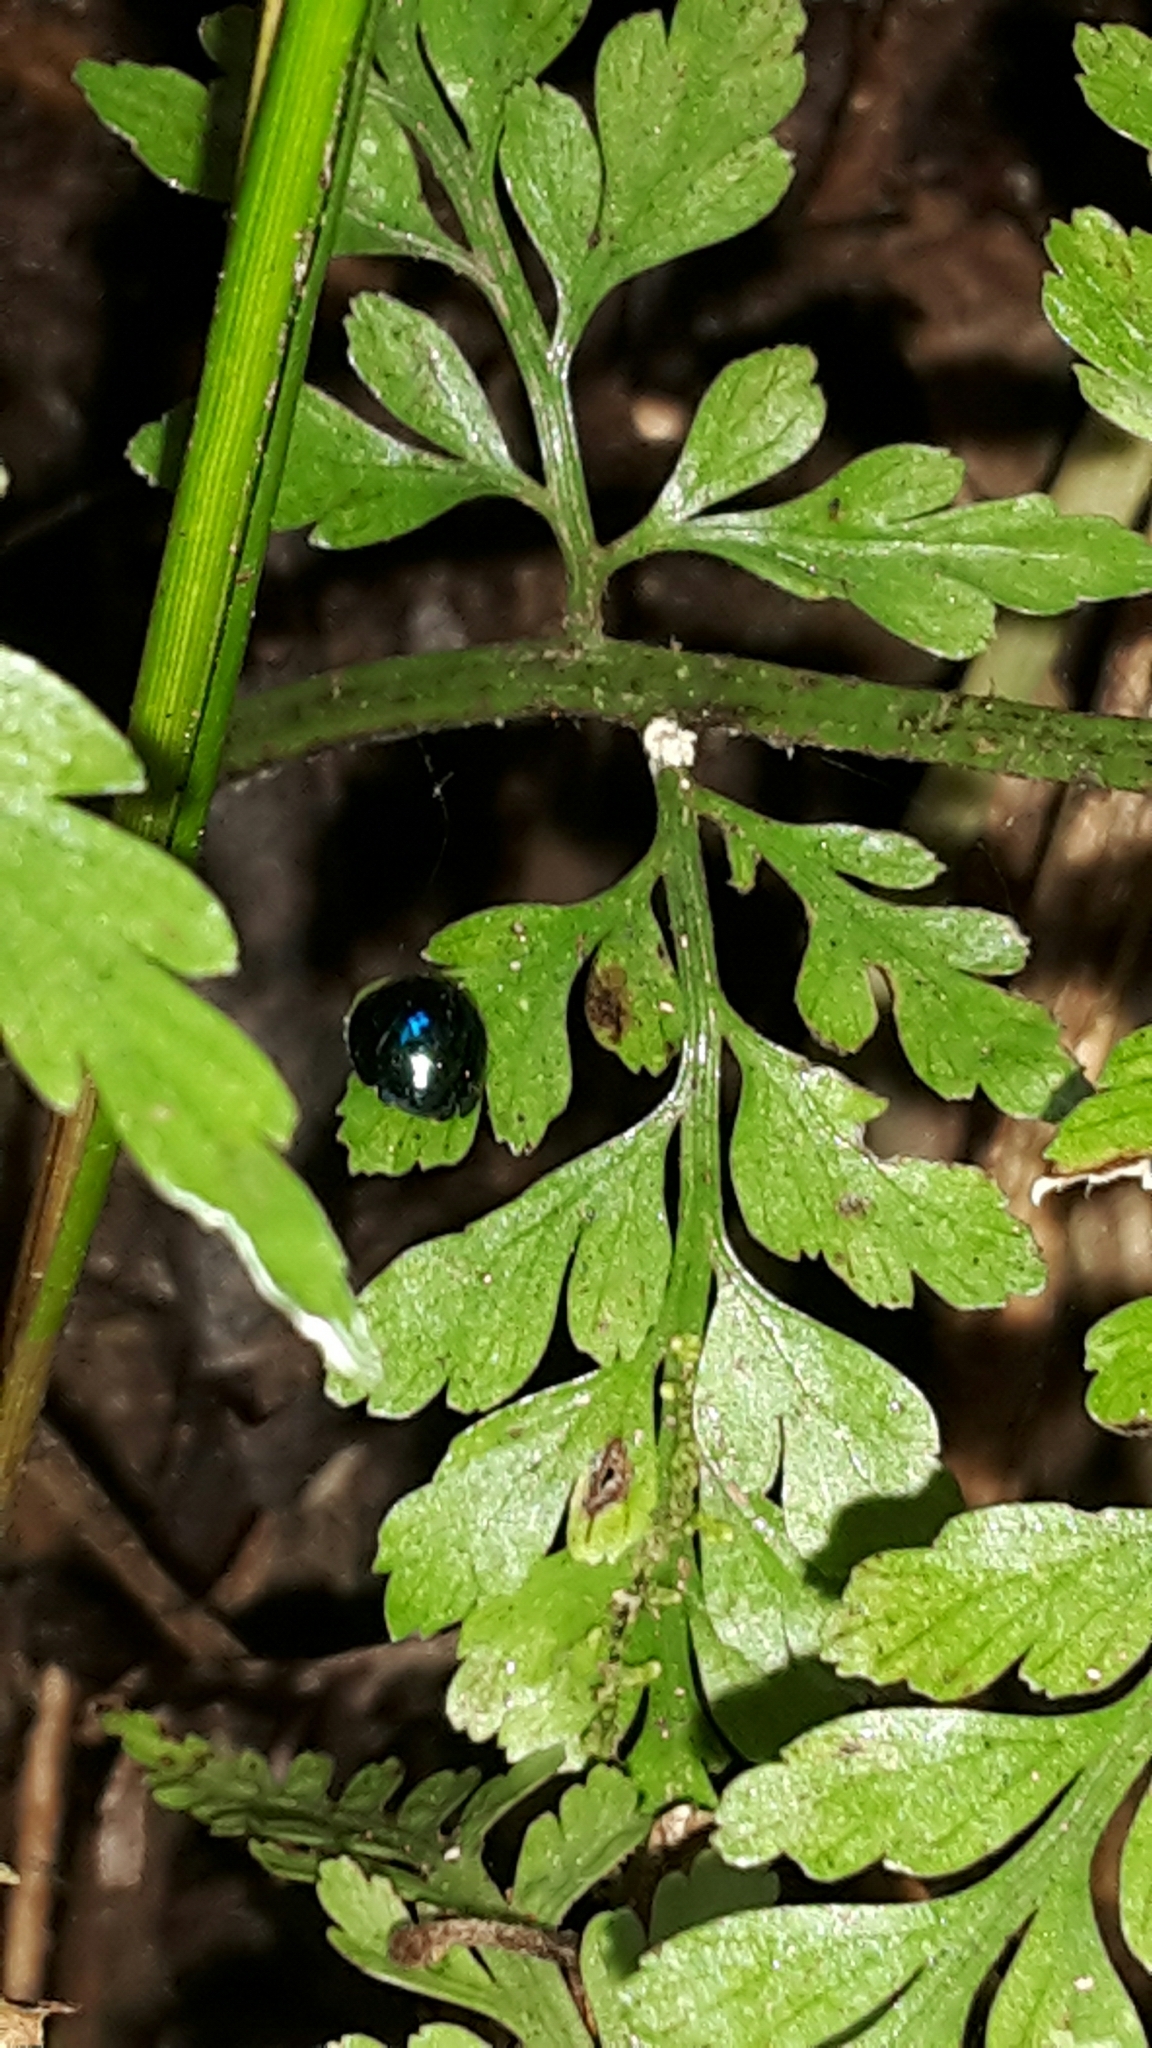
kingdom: Animalia
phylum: Arthropoda
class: Insecta
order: Coleoptera
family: Coccinellidae
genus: Halmus
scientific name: Halmus chalybeus
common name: Steel blue ladybird beetle
